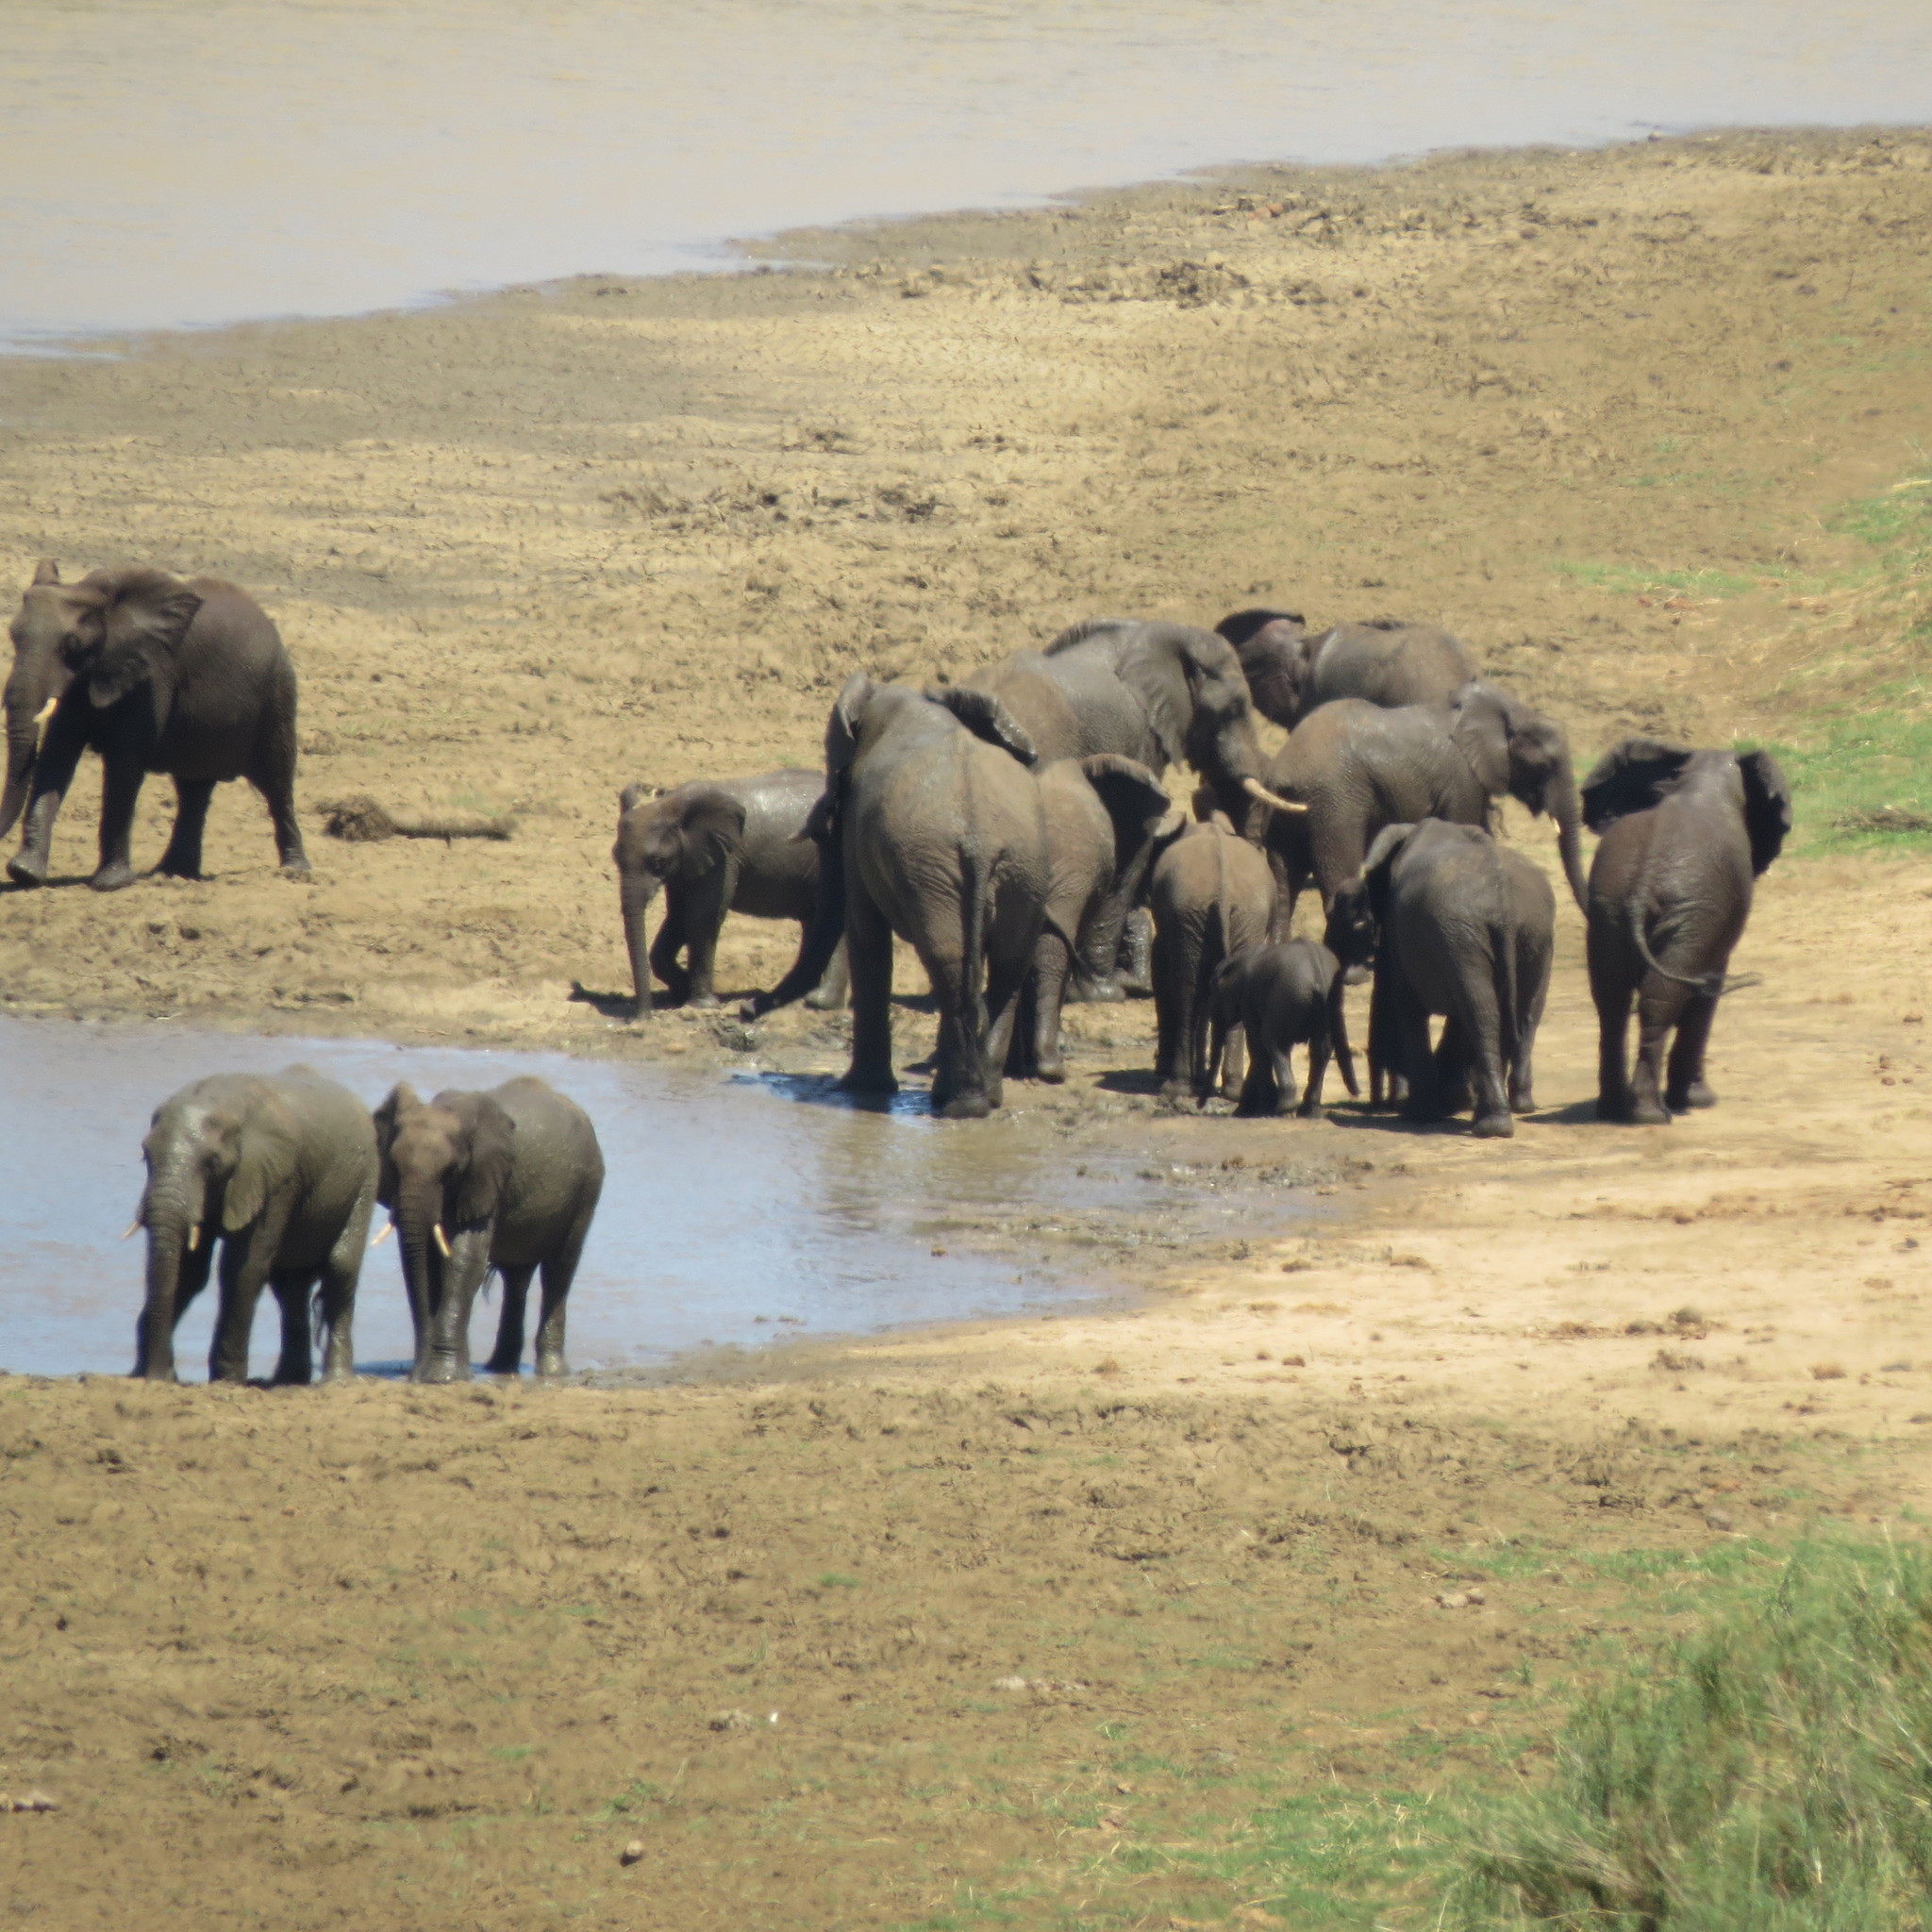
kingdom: Animalia
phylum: Chordata
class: Mammalia
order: Proboscidea
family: Elephantidae
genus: Loxodonta
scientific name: Loxodonta africana
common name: African elephant
